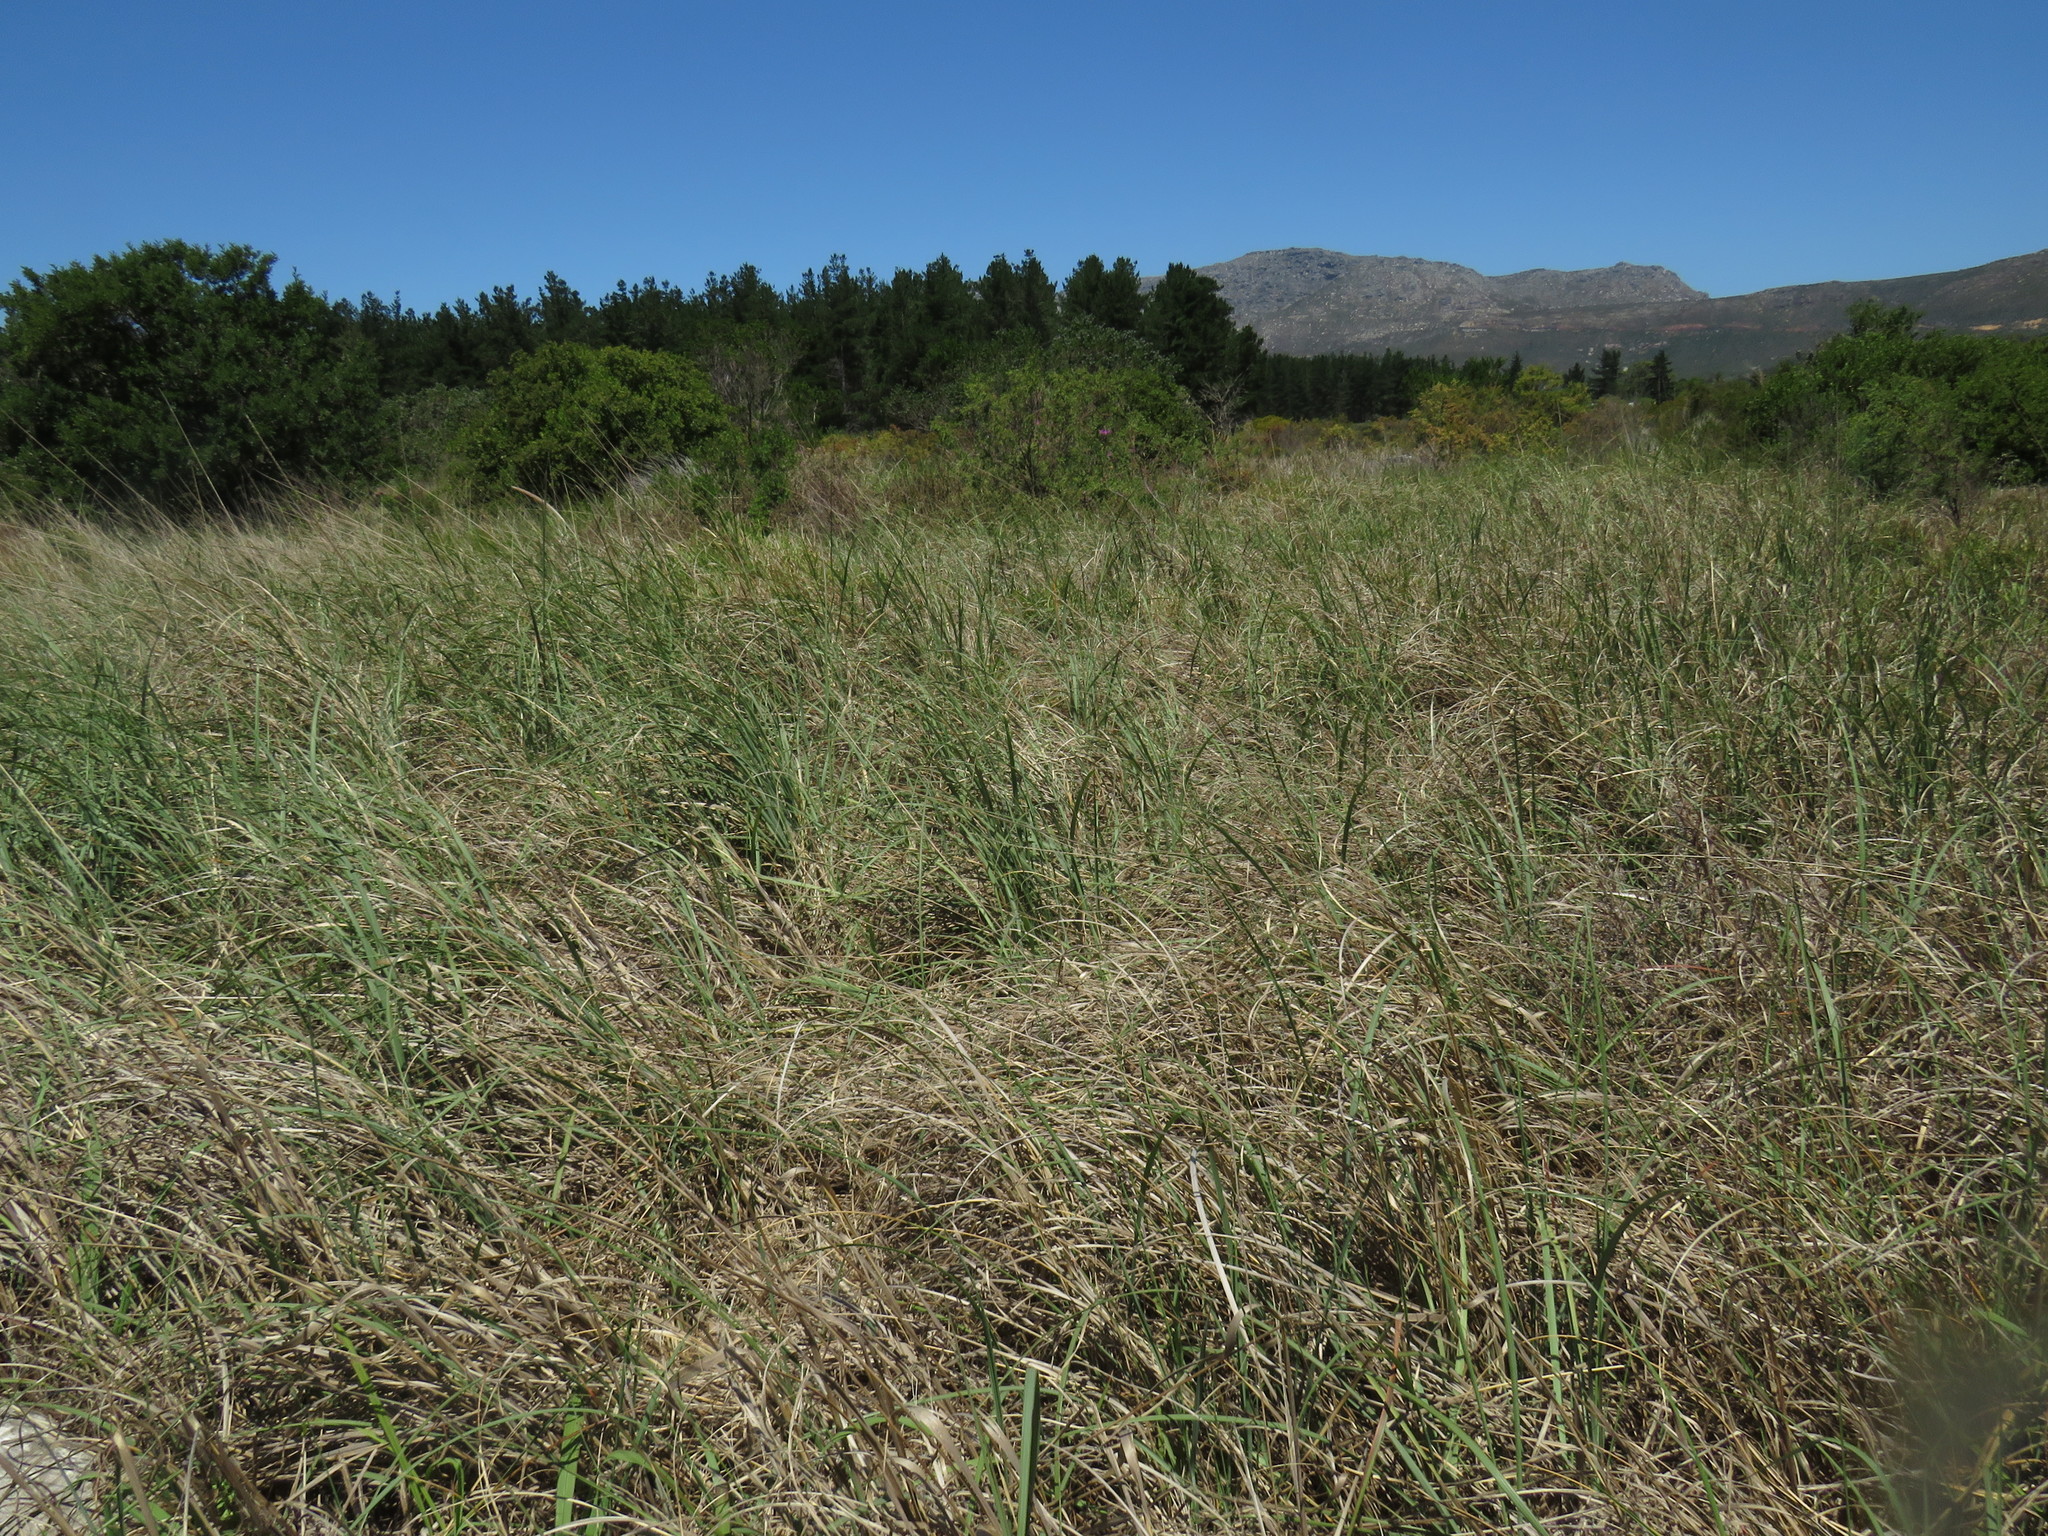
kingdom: Plantae
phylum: Tracheophyta
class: Liliopsida
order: Poales
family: Poaceae
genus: Cenchrus
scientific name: Cenchrus caudatus
